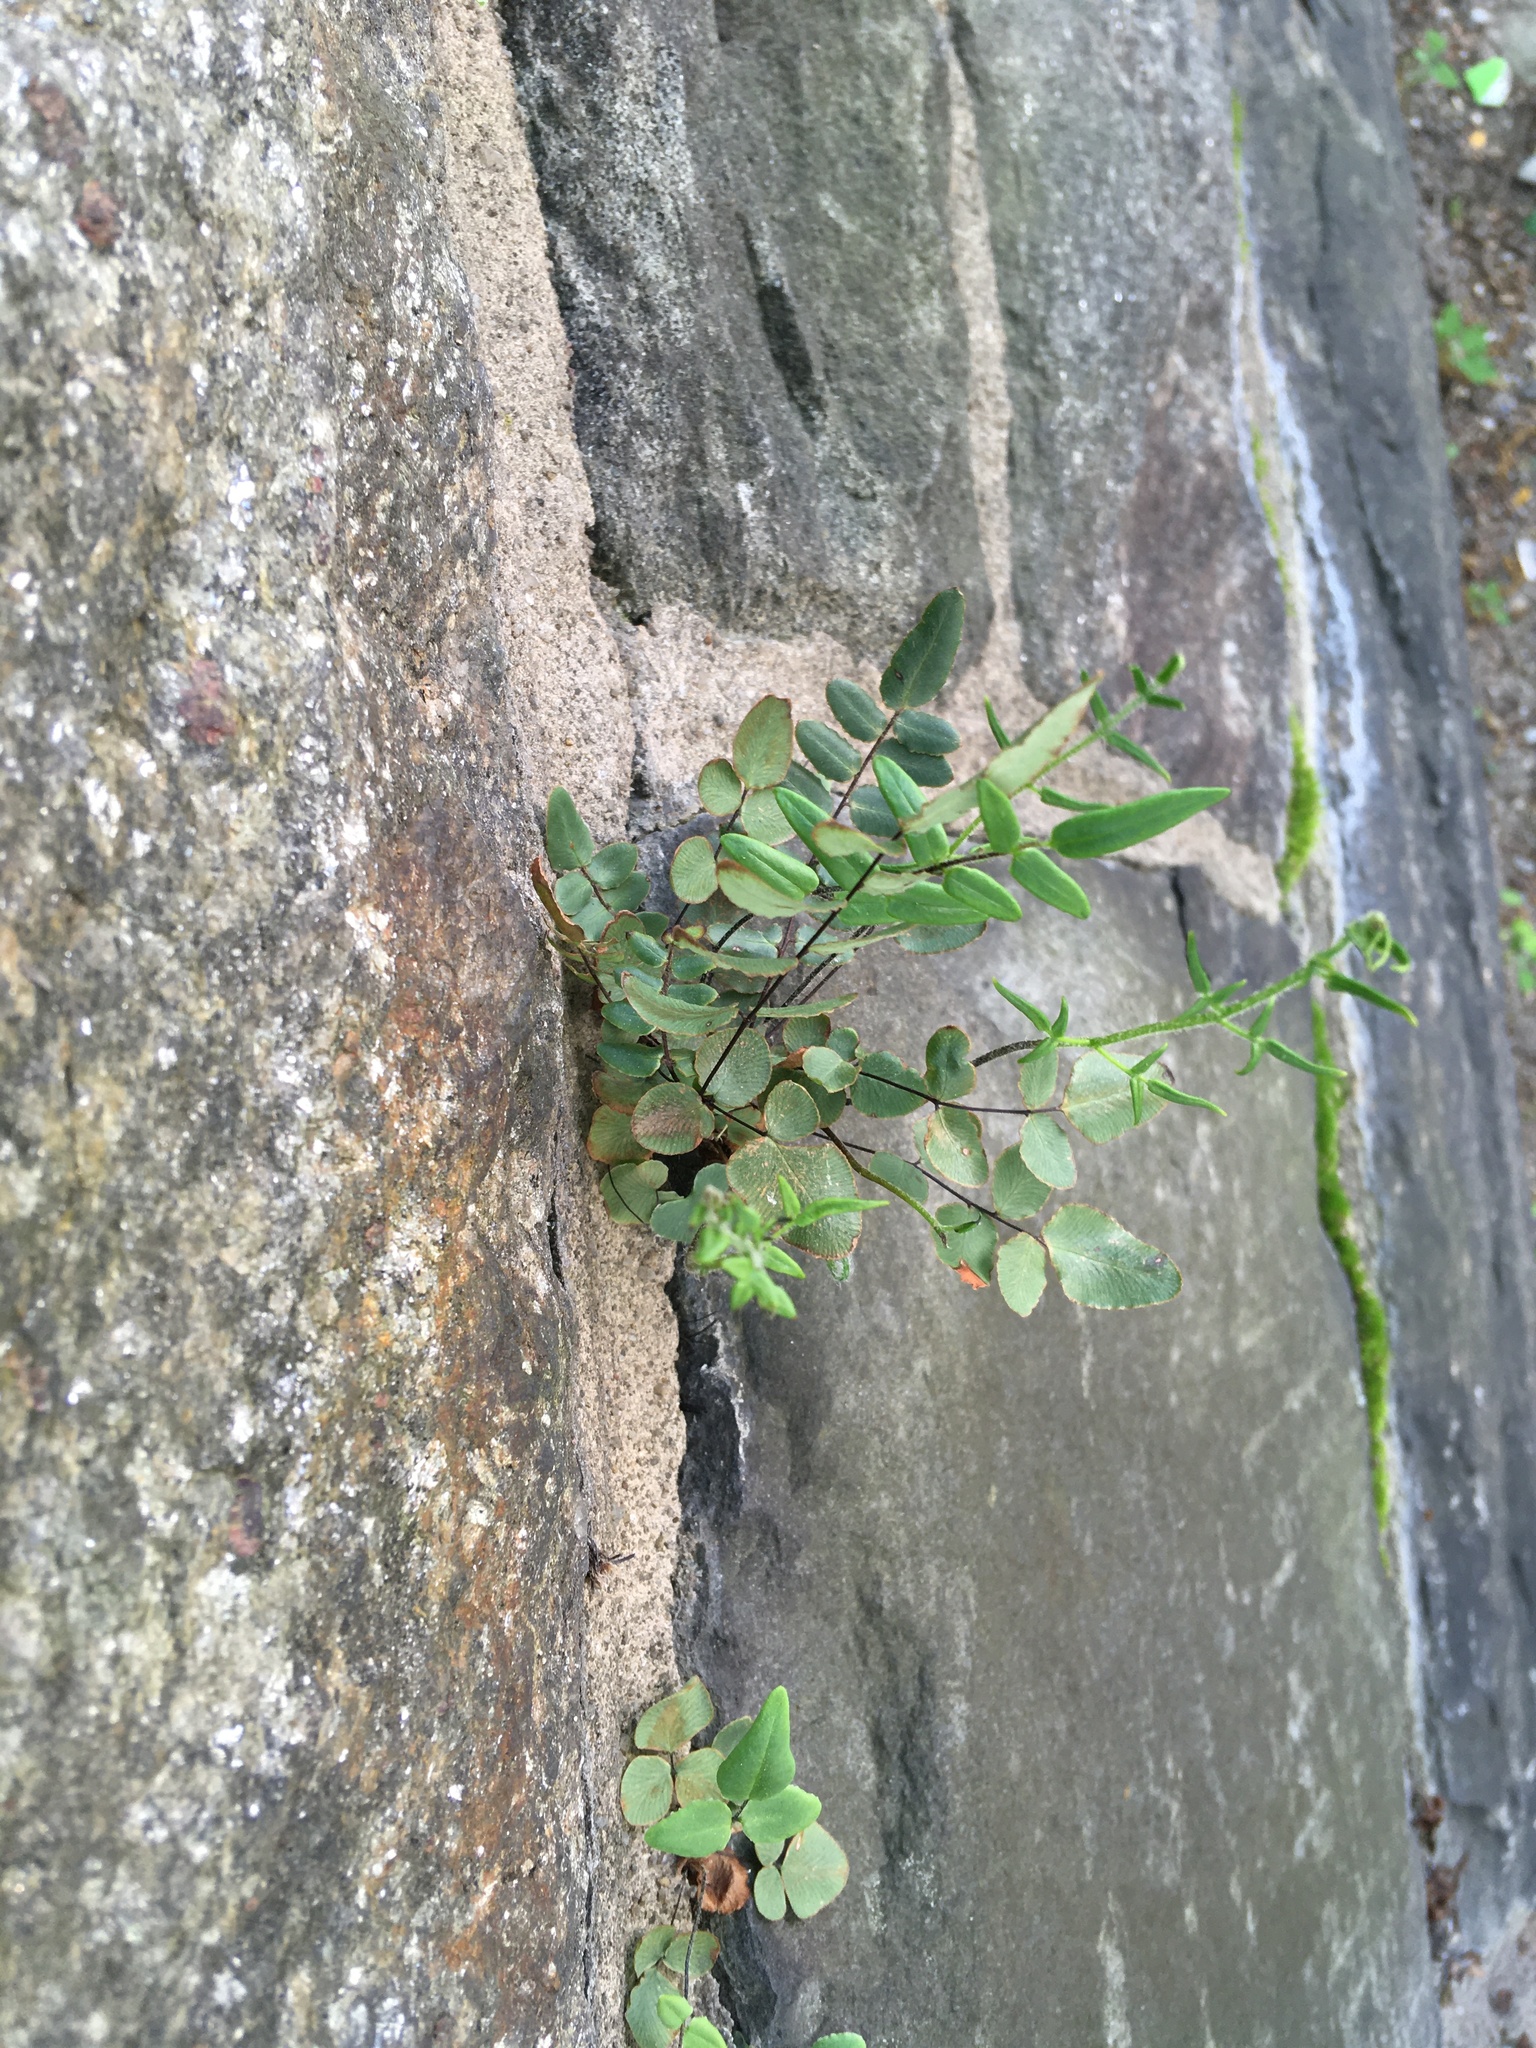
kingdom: Plantae
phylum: Tracheophyta
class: Polypodiopsida
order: Polypodiales
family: Pteridaceae
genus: Pellaea
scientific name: Pellaea atropurpurea
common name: Hairy cliffbrake
